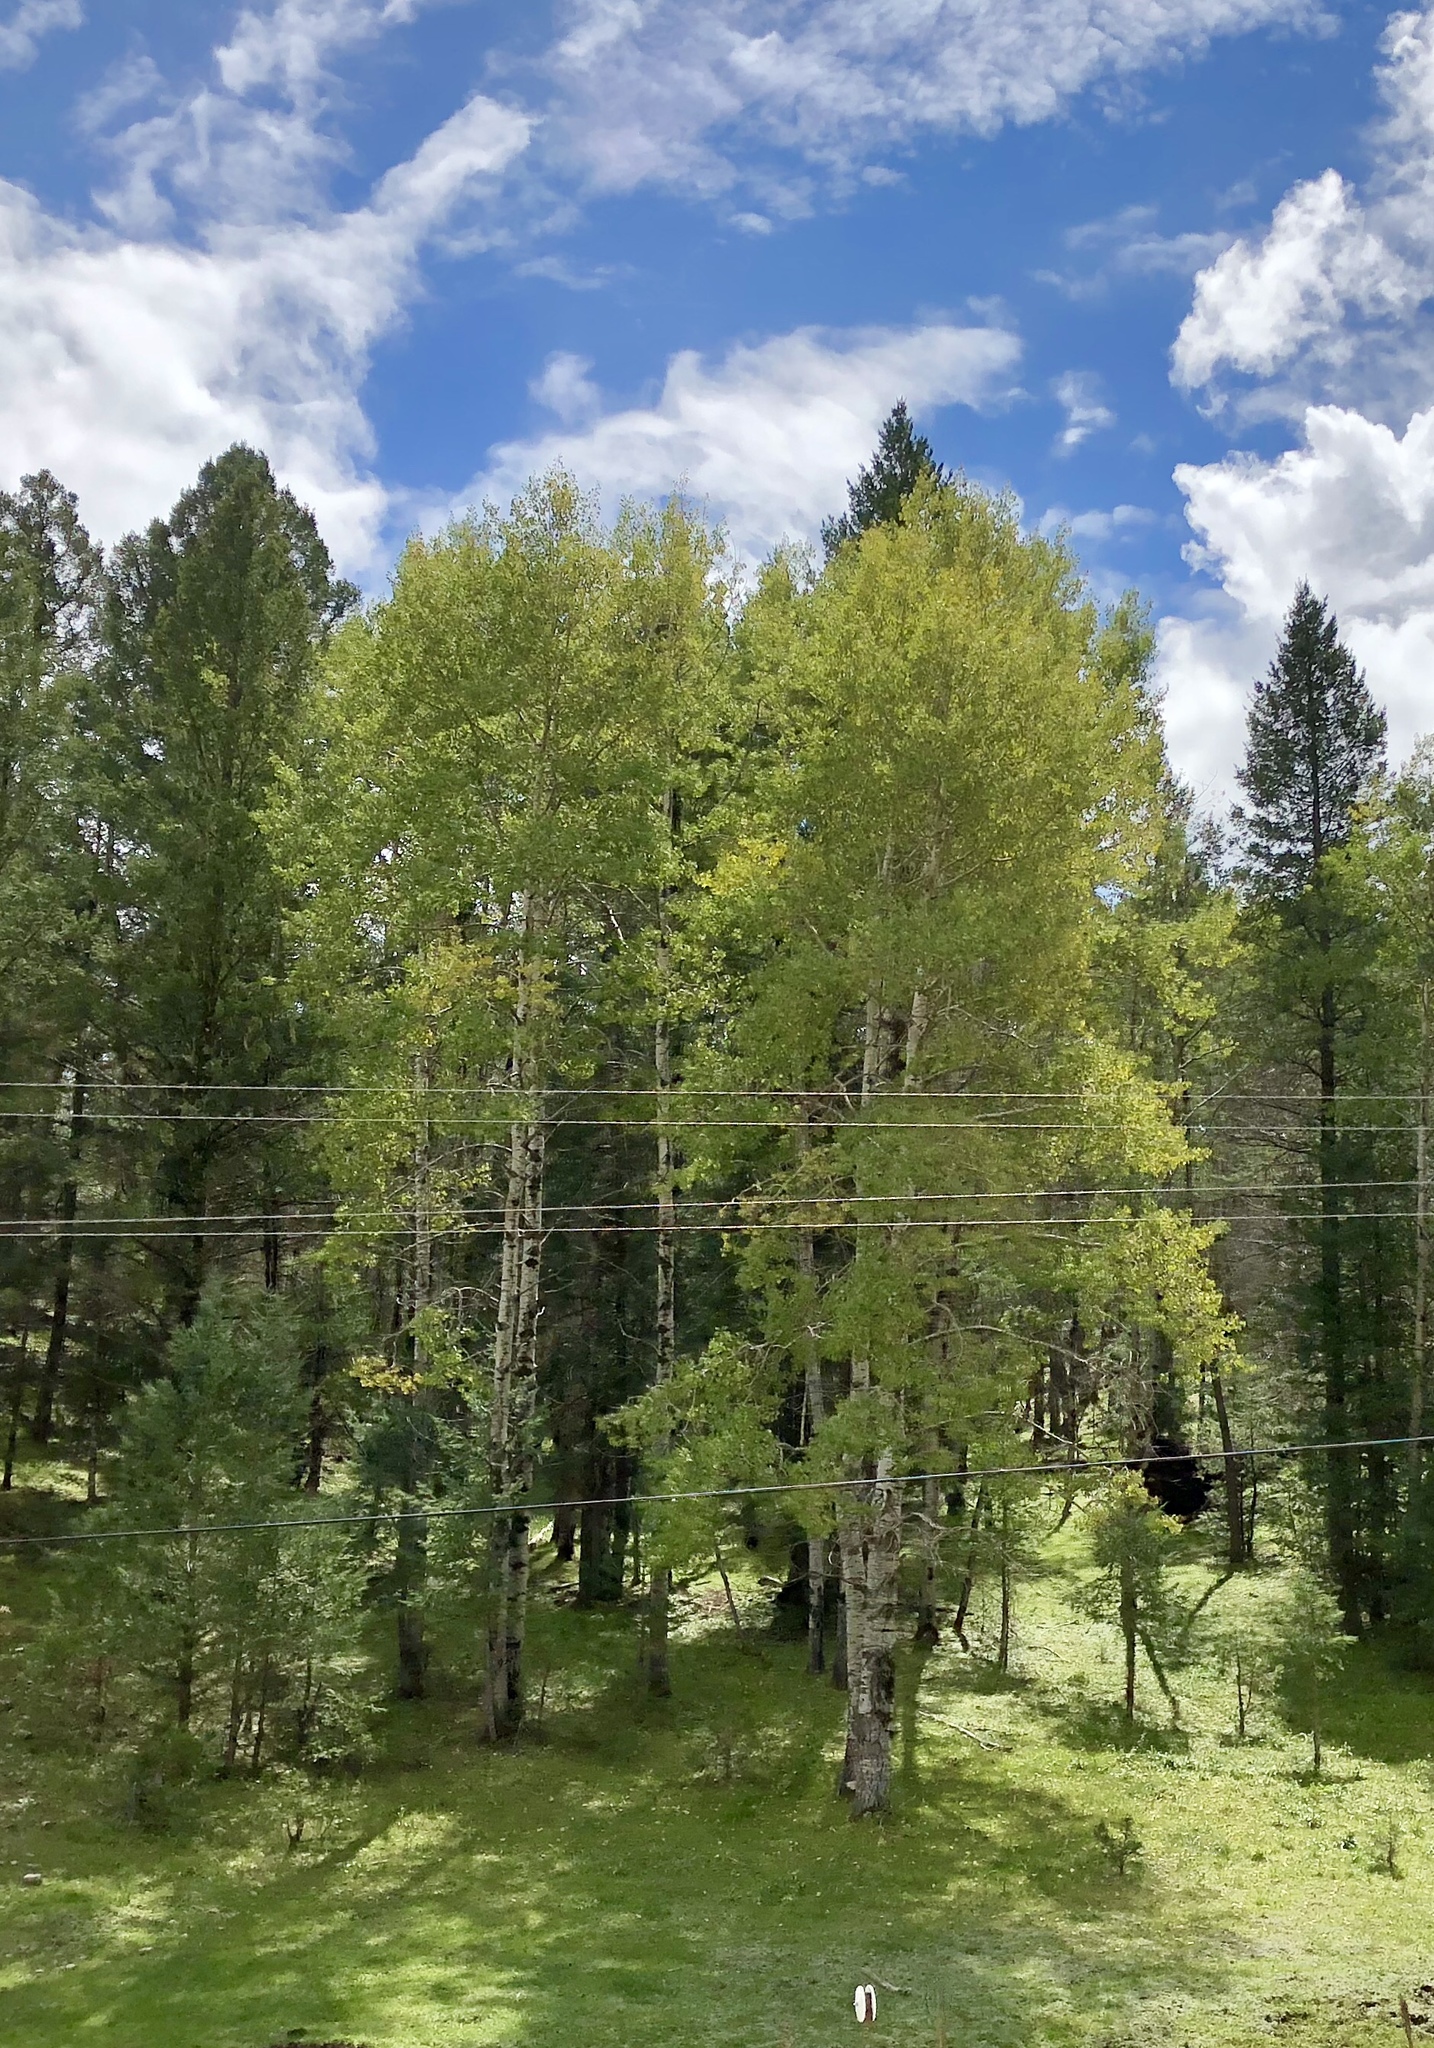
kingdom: Plantae
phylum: Tracheophyta
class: Magnoliopsida
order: Malpighiales
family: Salicaceae
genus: Populus
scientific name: Populus tremuloides
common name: Quaking aspen
